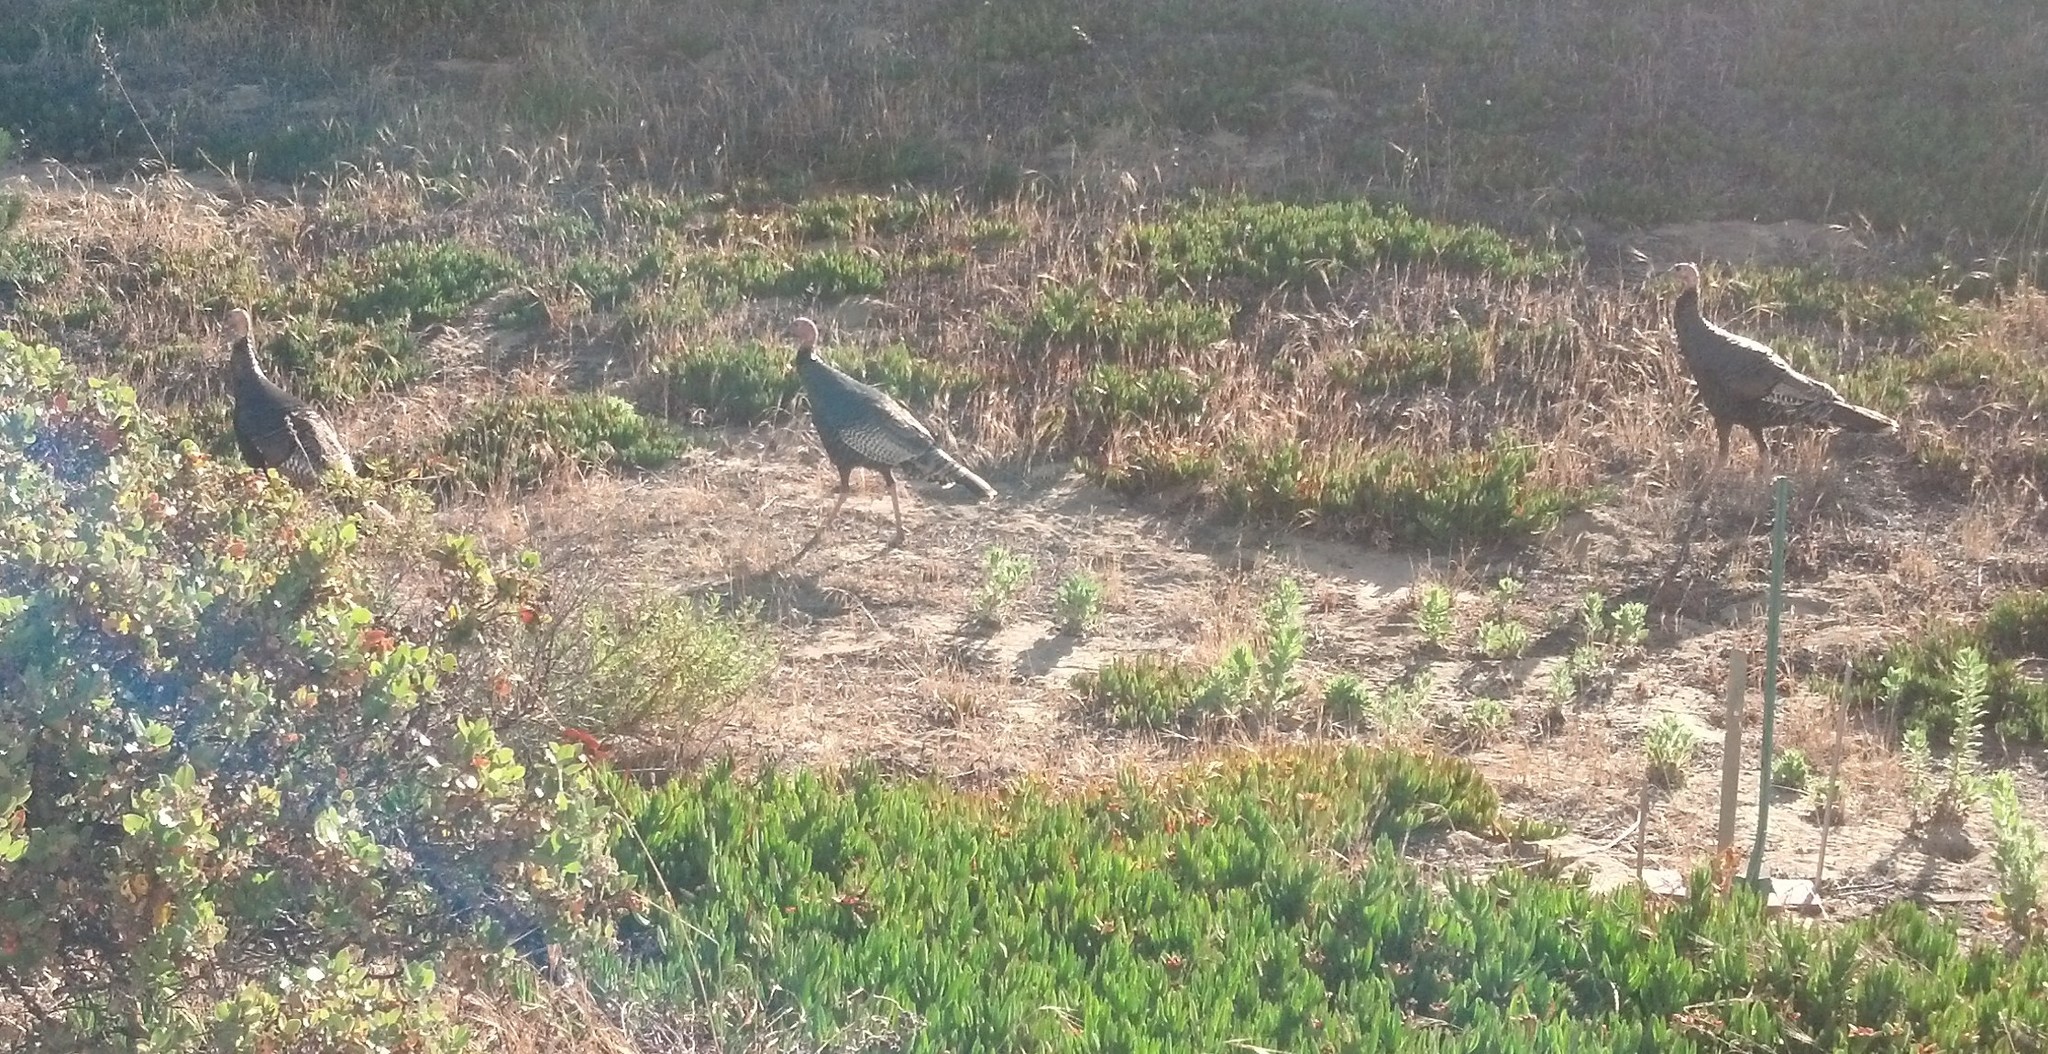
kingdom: Animalia
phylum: Chordata
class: Aves
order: Galliformes
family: Phasianidae
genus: Meleagris
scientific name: Meleagris gallopavo
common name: Wild turkey
